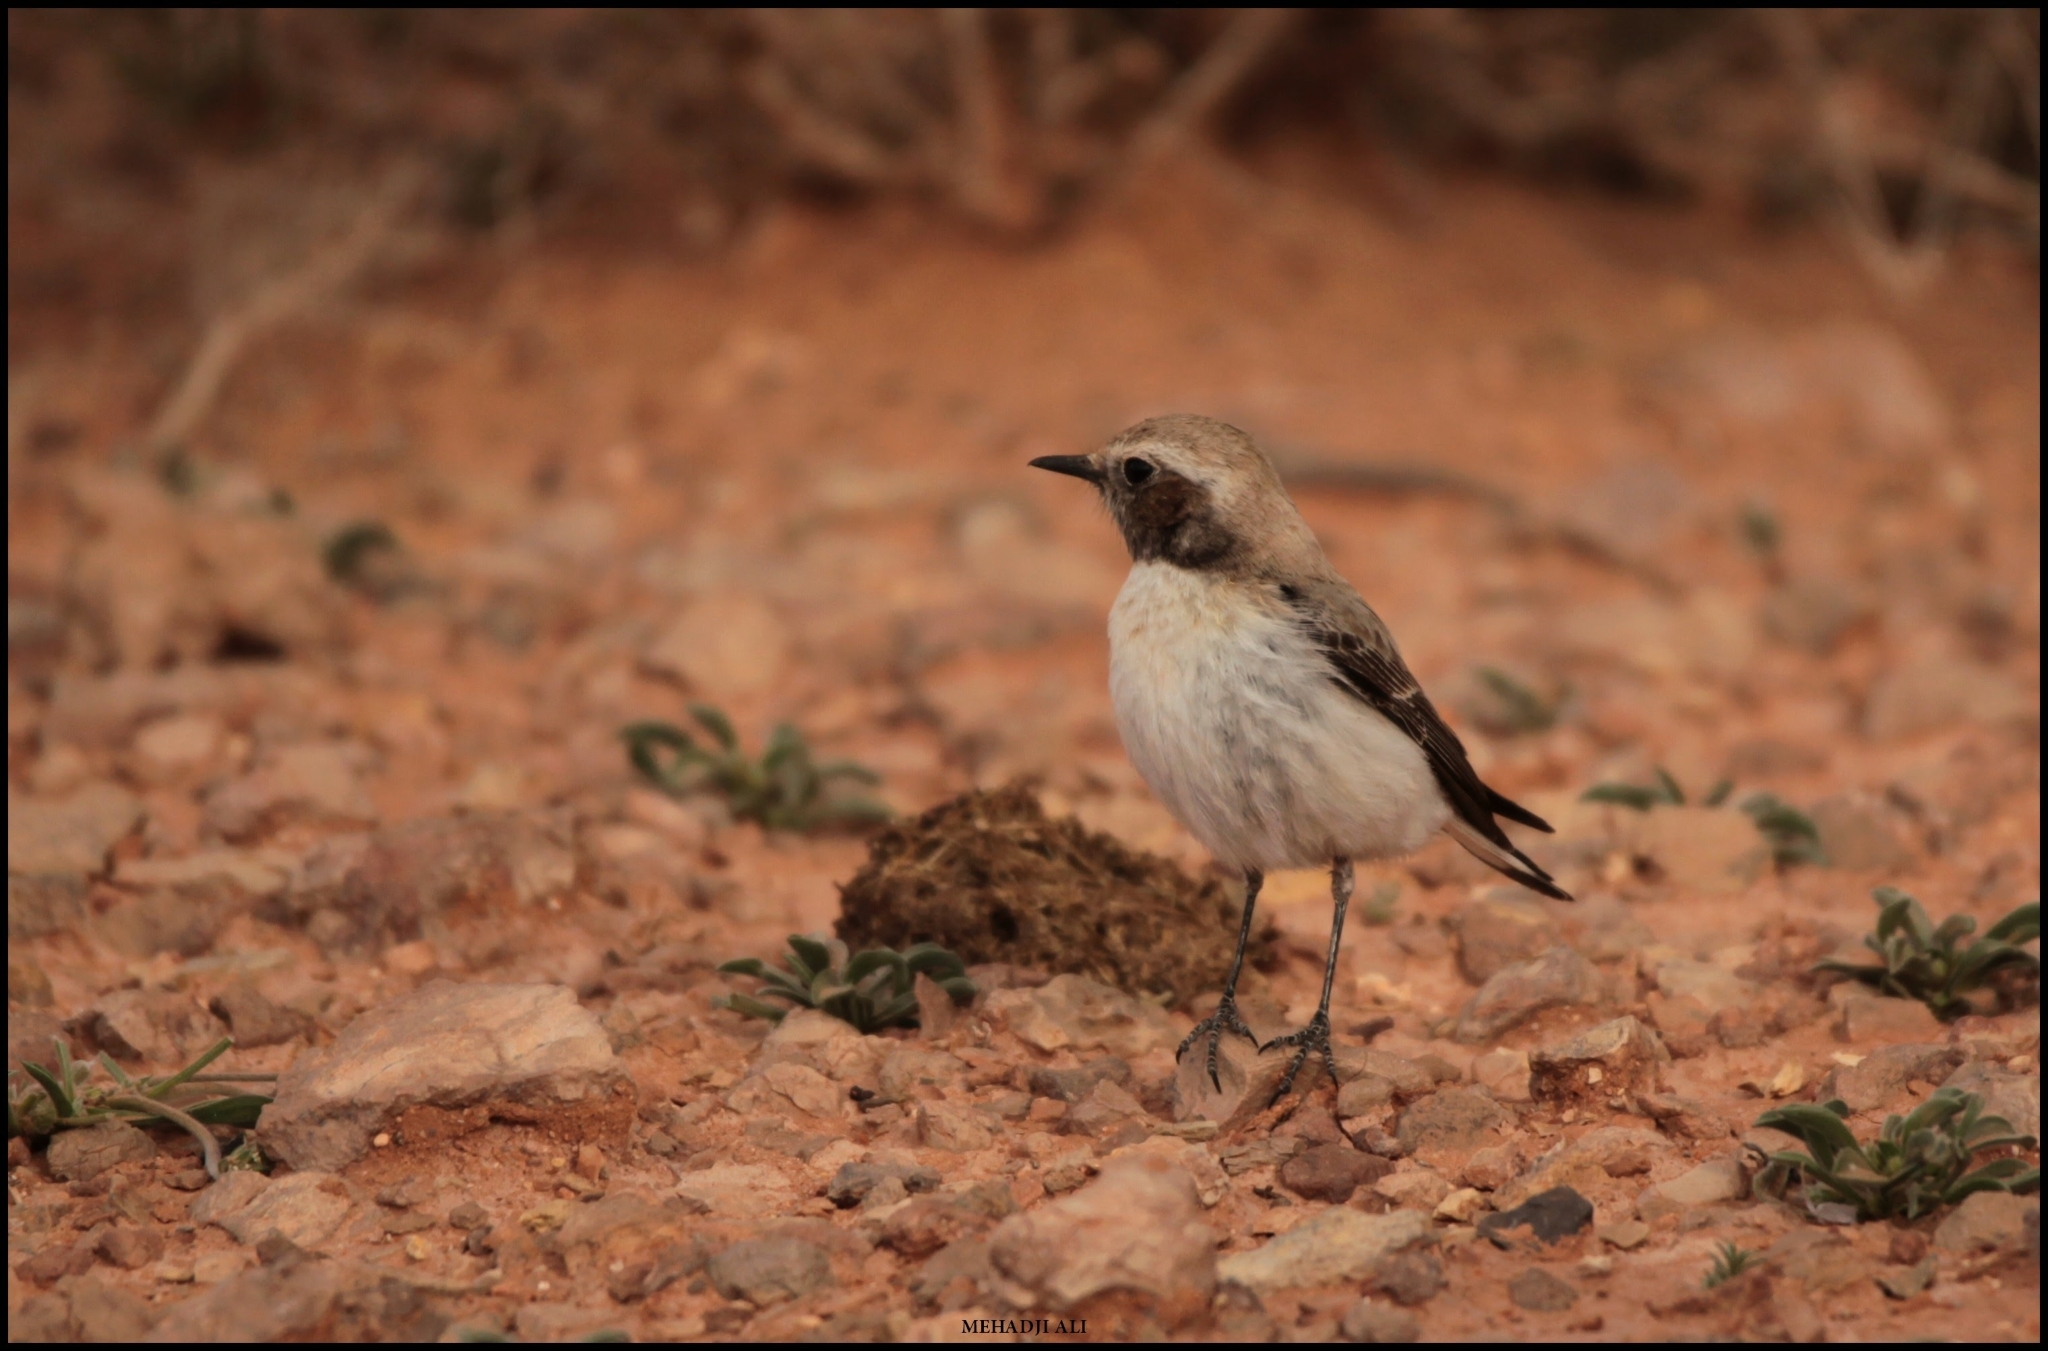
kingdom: Animalia
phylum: Chordata
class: Aves
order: Passeriformes
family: Muscicapidae
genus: Oenanthe
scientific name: Oenanthe deserti
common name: Desert wheatear
